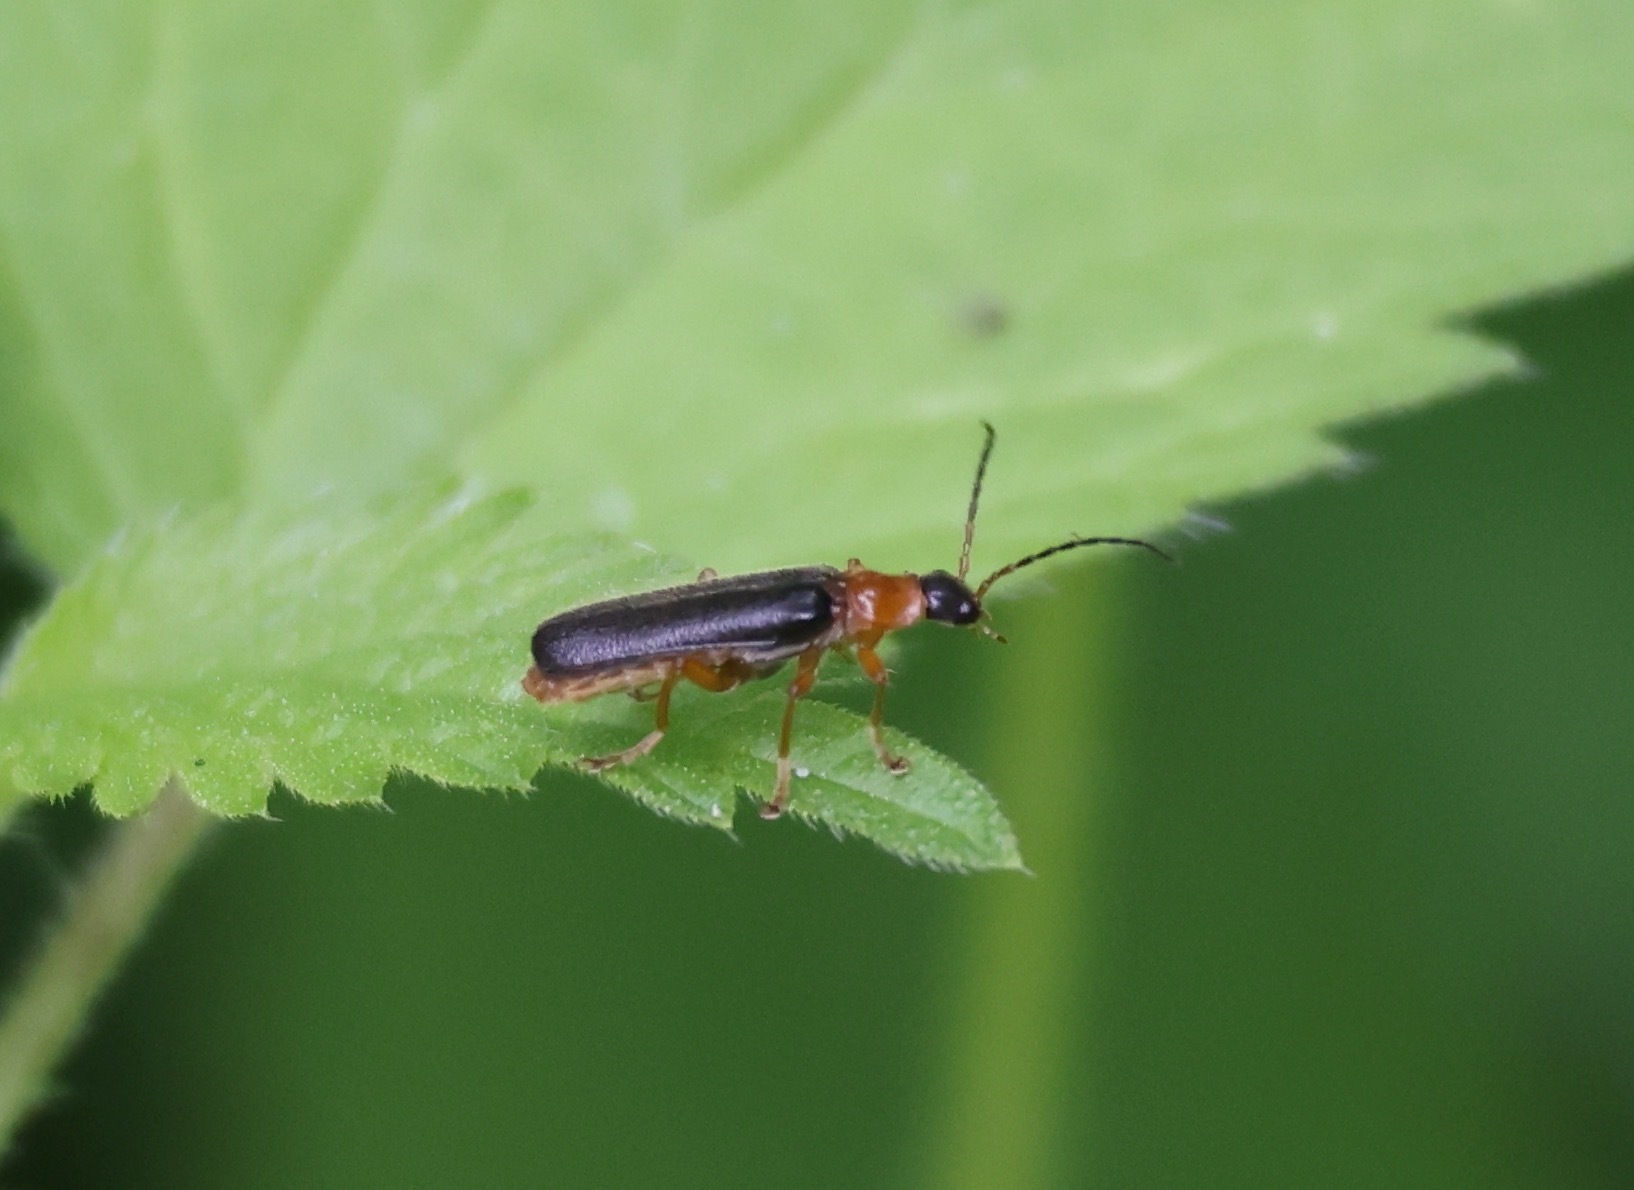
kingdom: Animalia
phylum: Arthropoda
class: Insecta
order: Coleoptera
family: Cantharidae
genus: Cantharis
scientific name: Cantharis nigra
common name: Cantharid beetle
